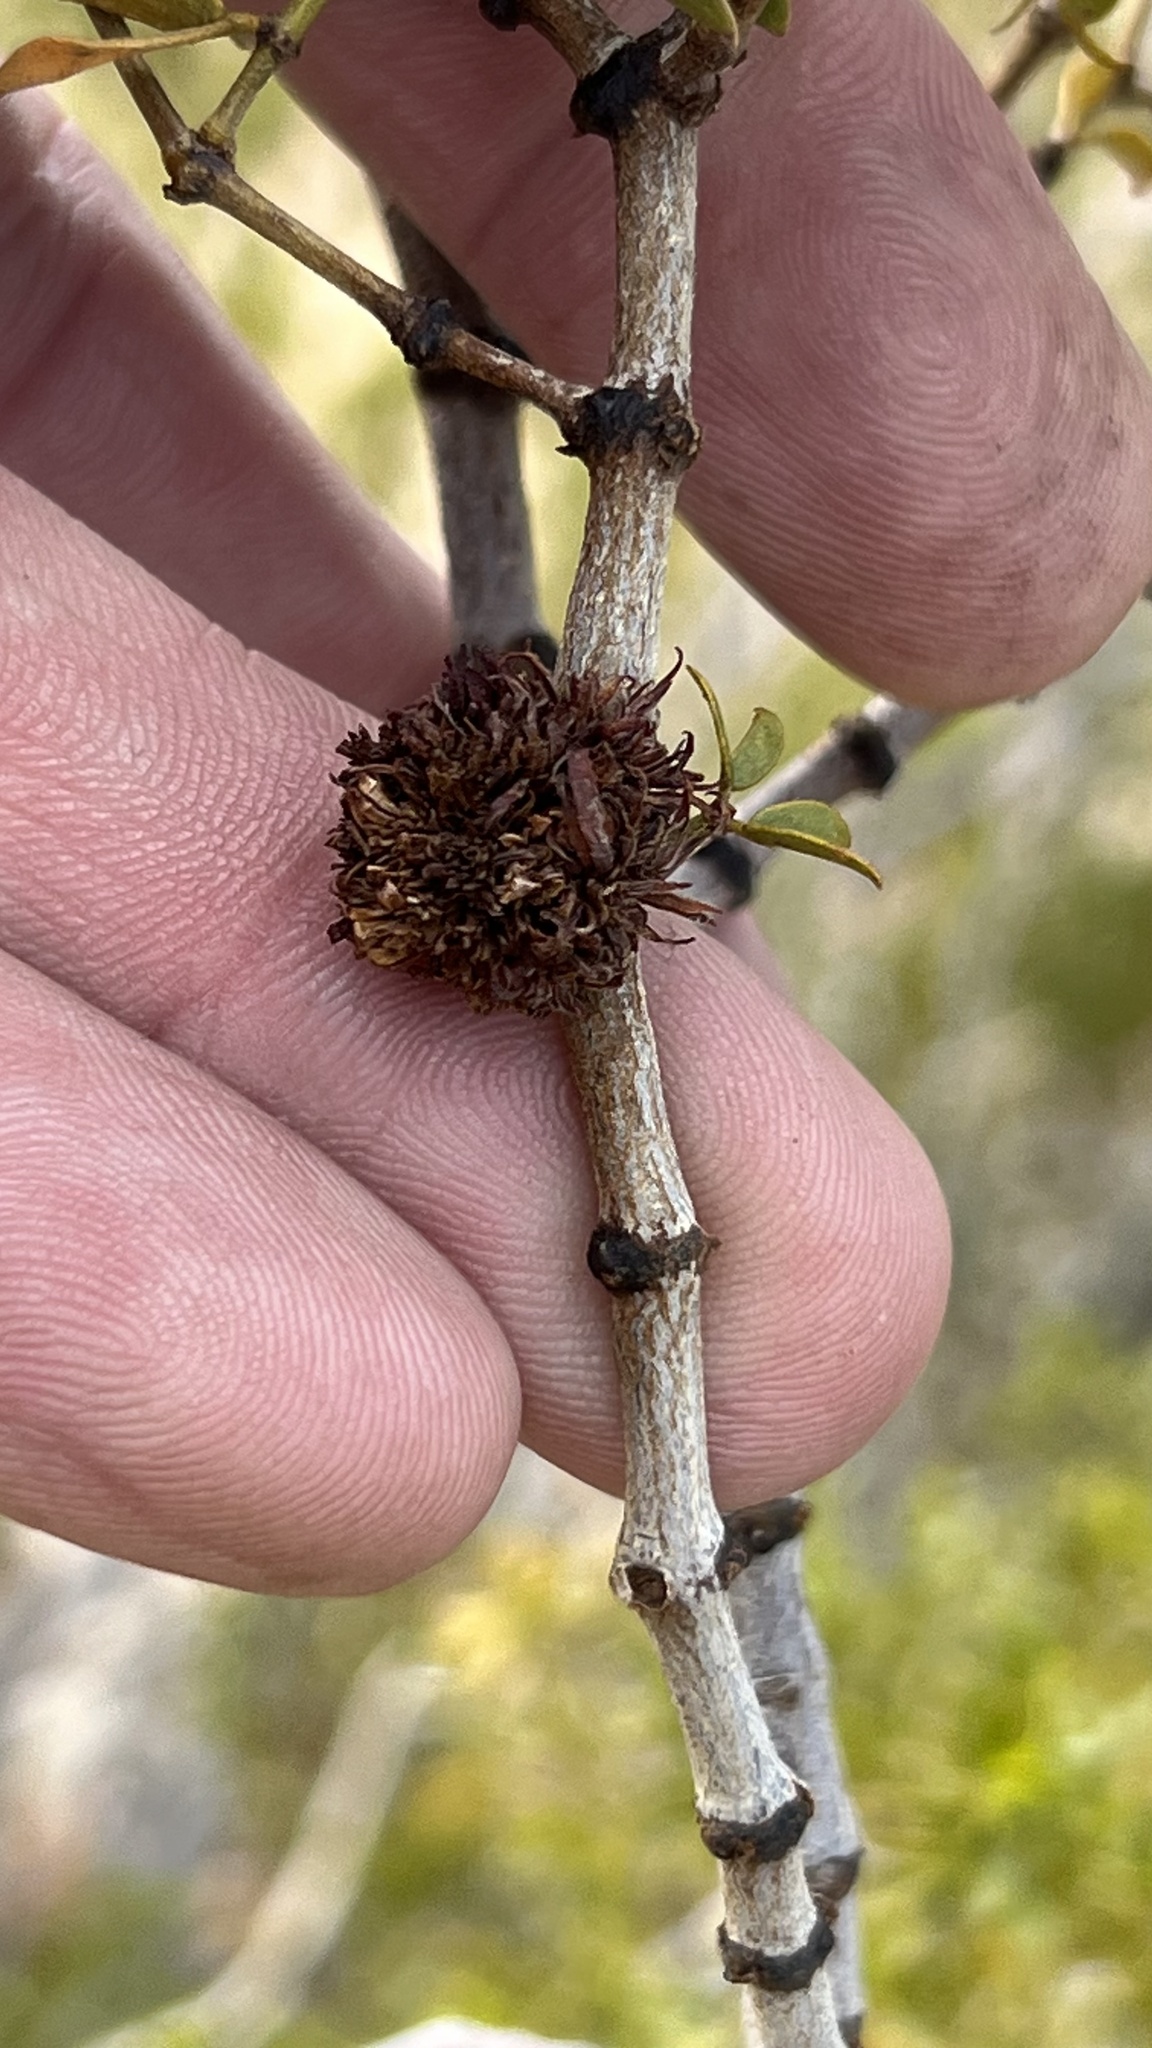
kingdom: Animalia
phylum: Arthropoda
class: Insecta
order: Diptera
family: Cecidomyiidae
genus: Asphondylia
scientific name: Asphondylia auripila
